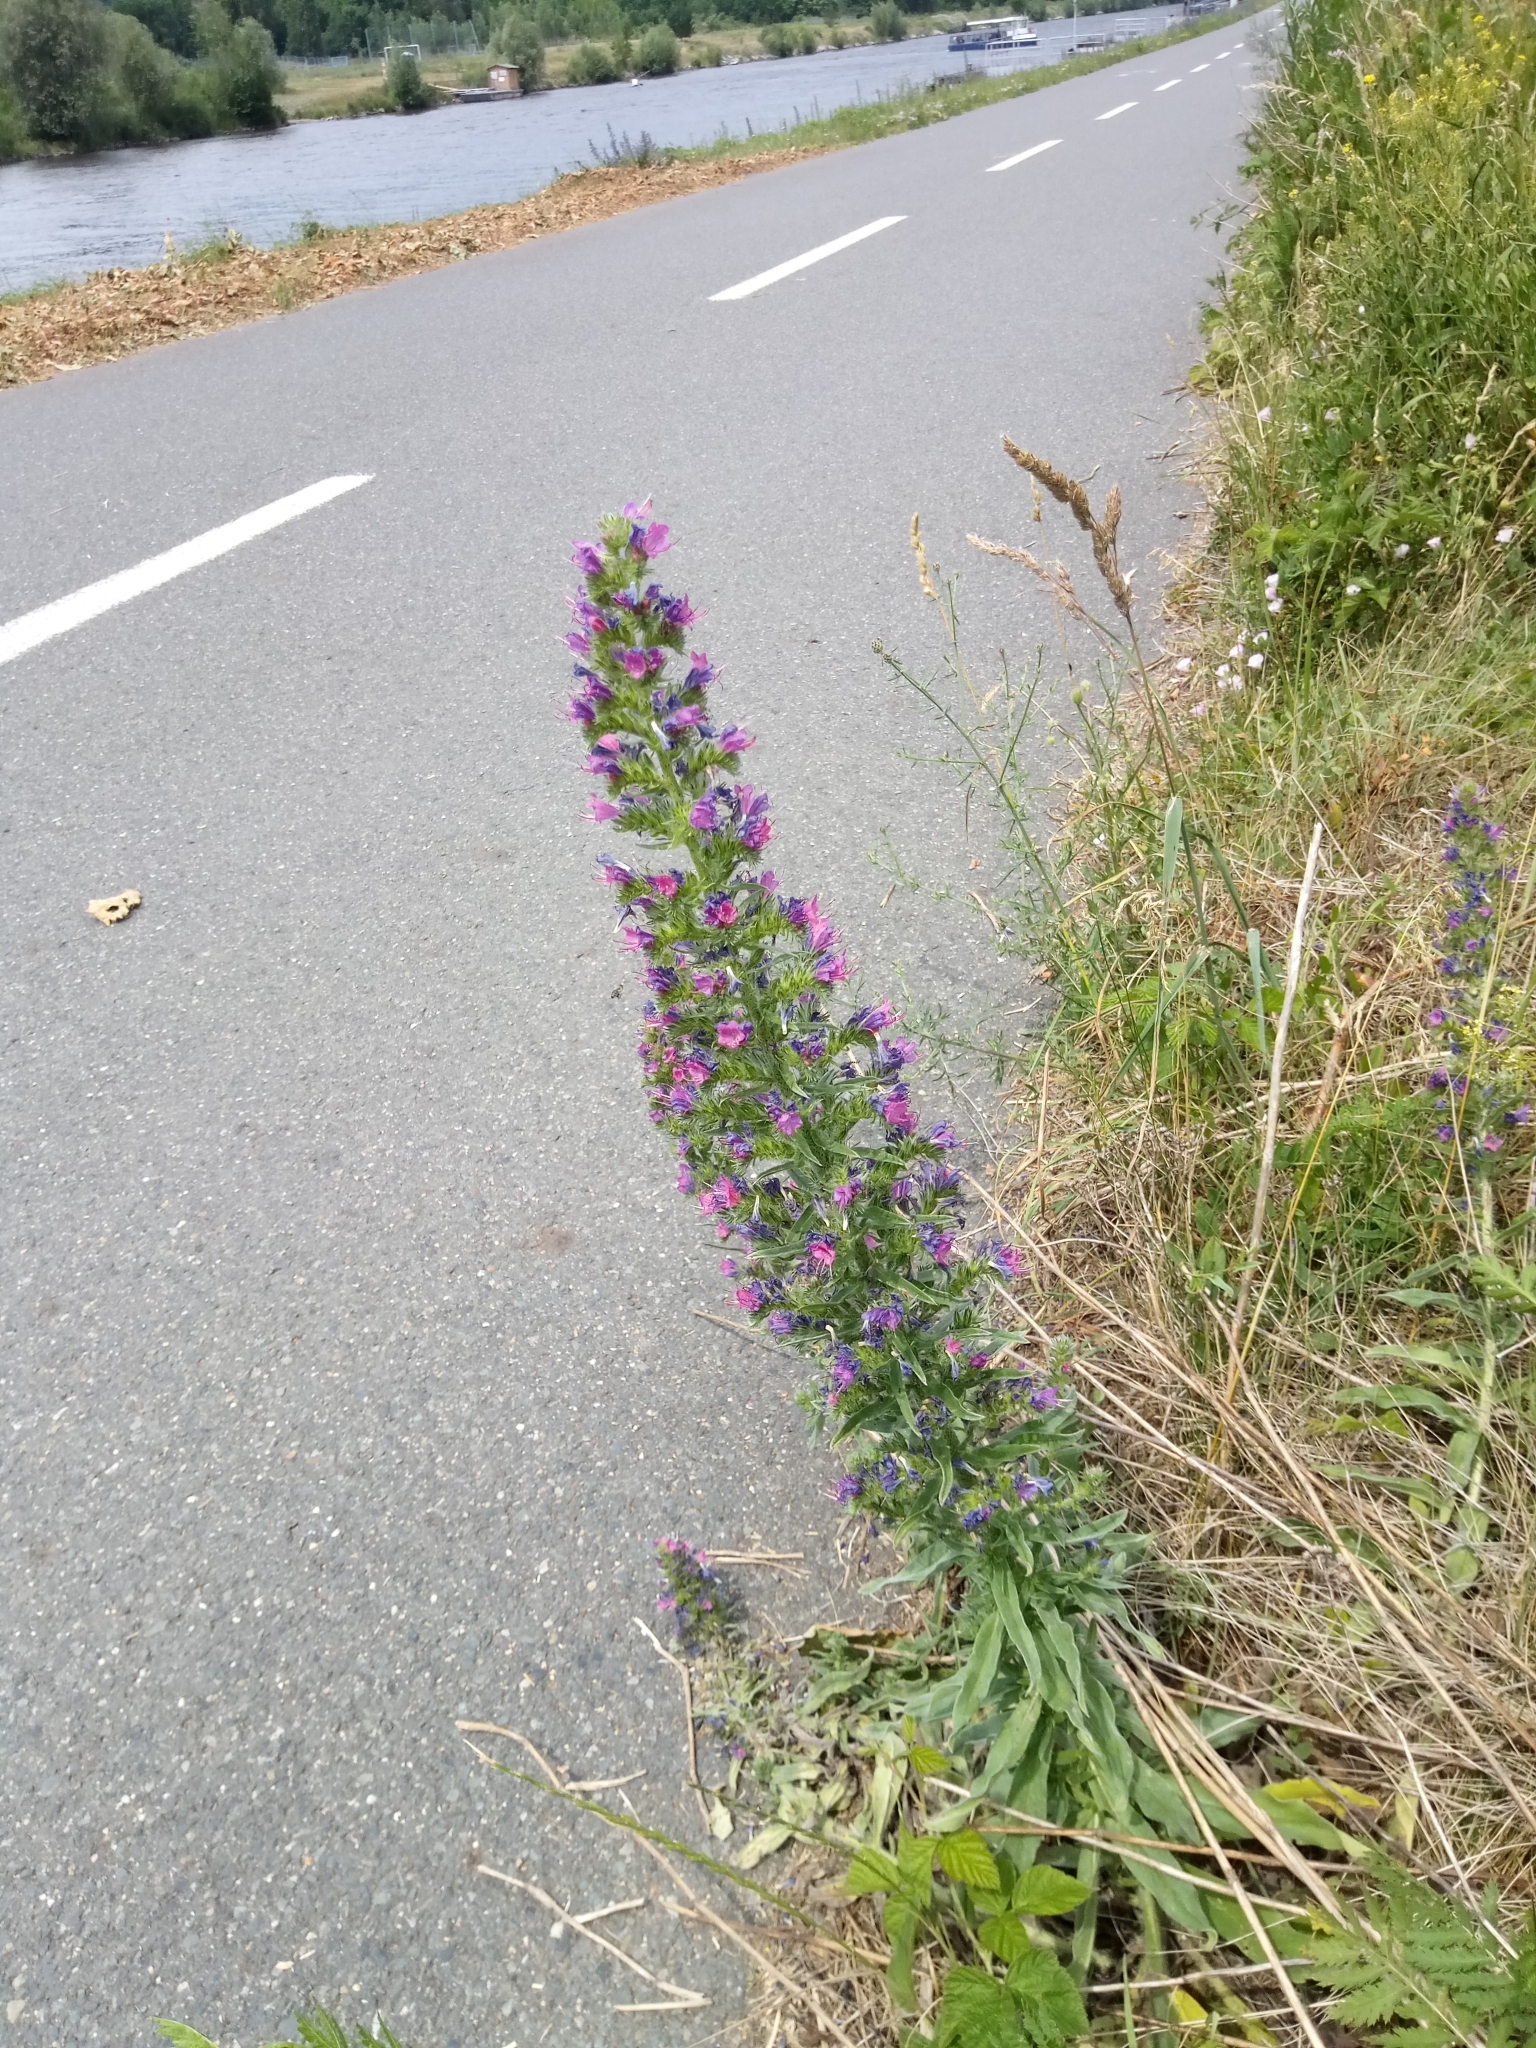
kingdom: Plantae
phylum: Tracheophyta
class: Magnoliopsida
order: Boraginales
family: Boraginaceae
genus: Echium
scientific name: Echium vulgare
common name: Common viper's bugloss
